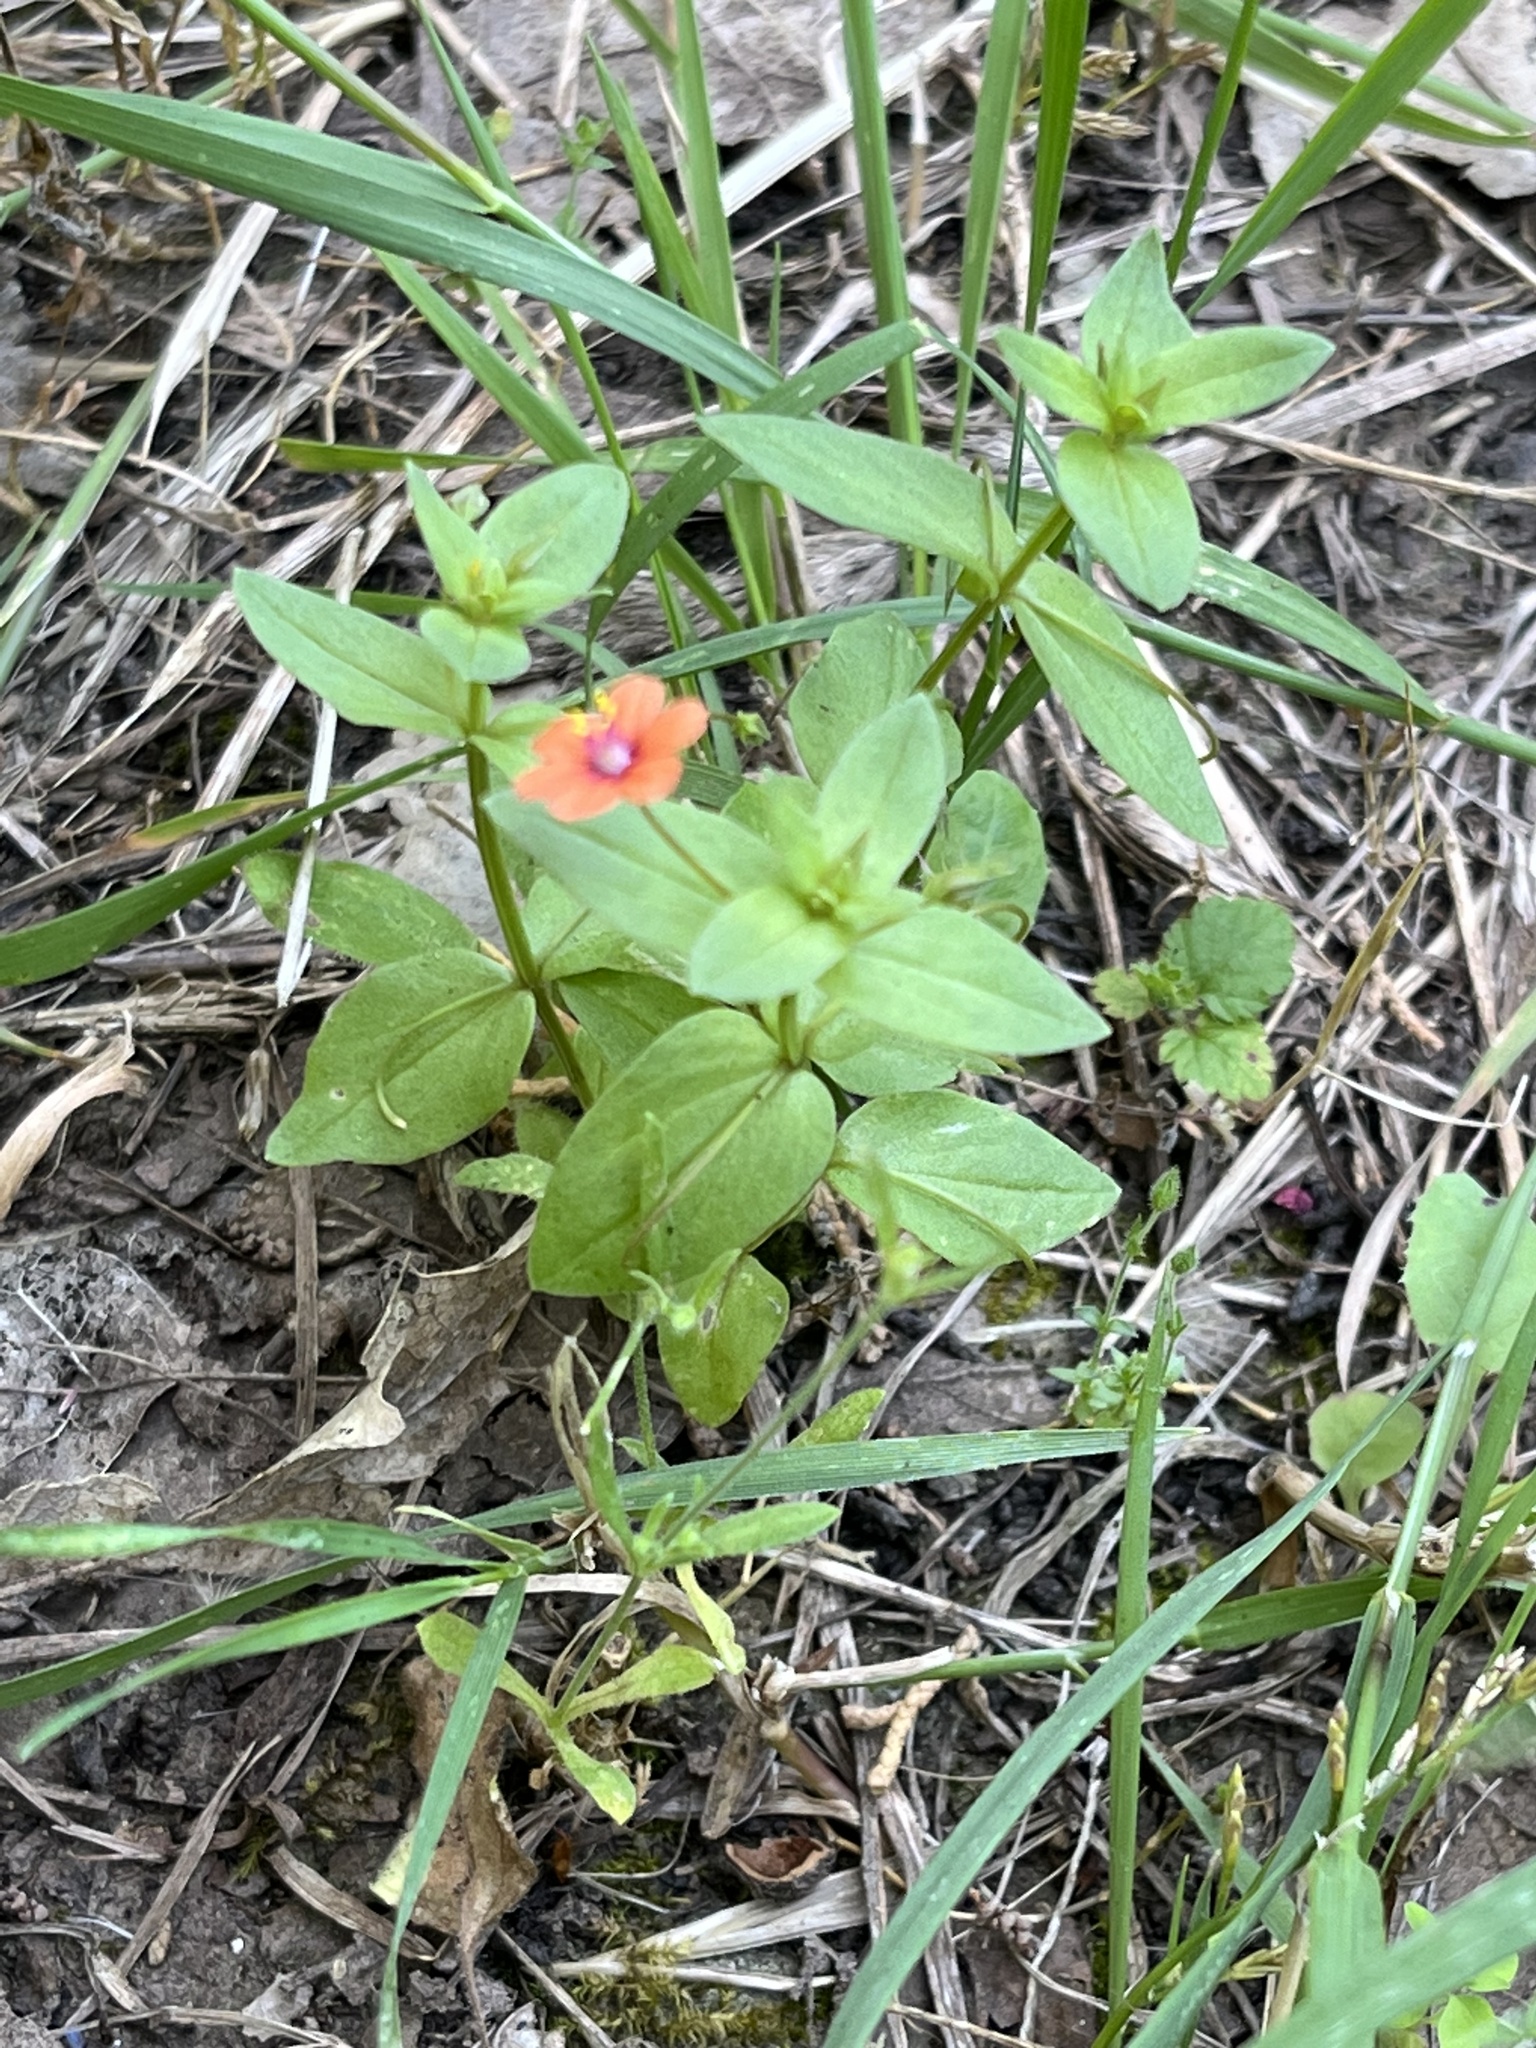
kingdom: Plantae
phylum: Tracheophyta
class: Magnoliopsida
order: Ericales
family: Primulaceae
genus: Lysimachia
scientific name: Lysimachia arvensis
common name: Scarlet pimpernel
